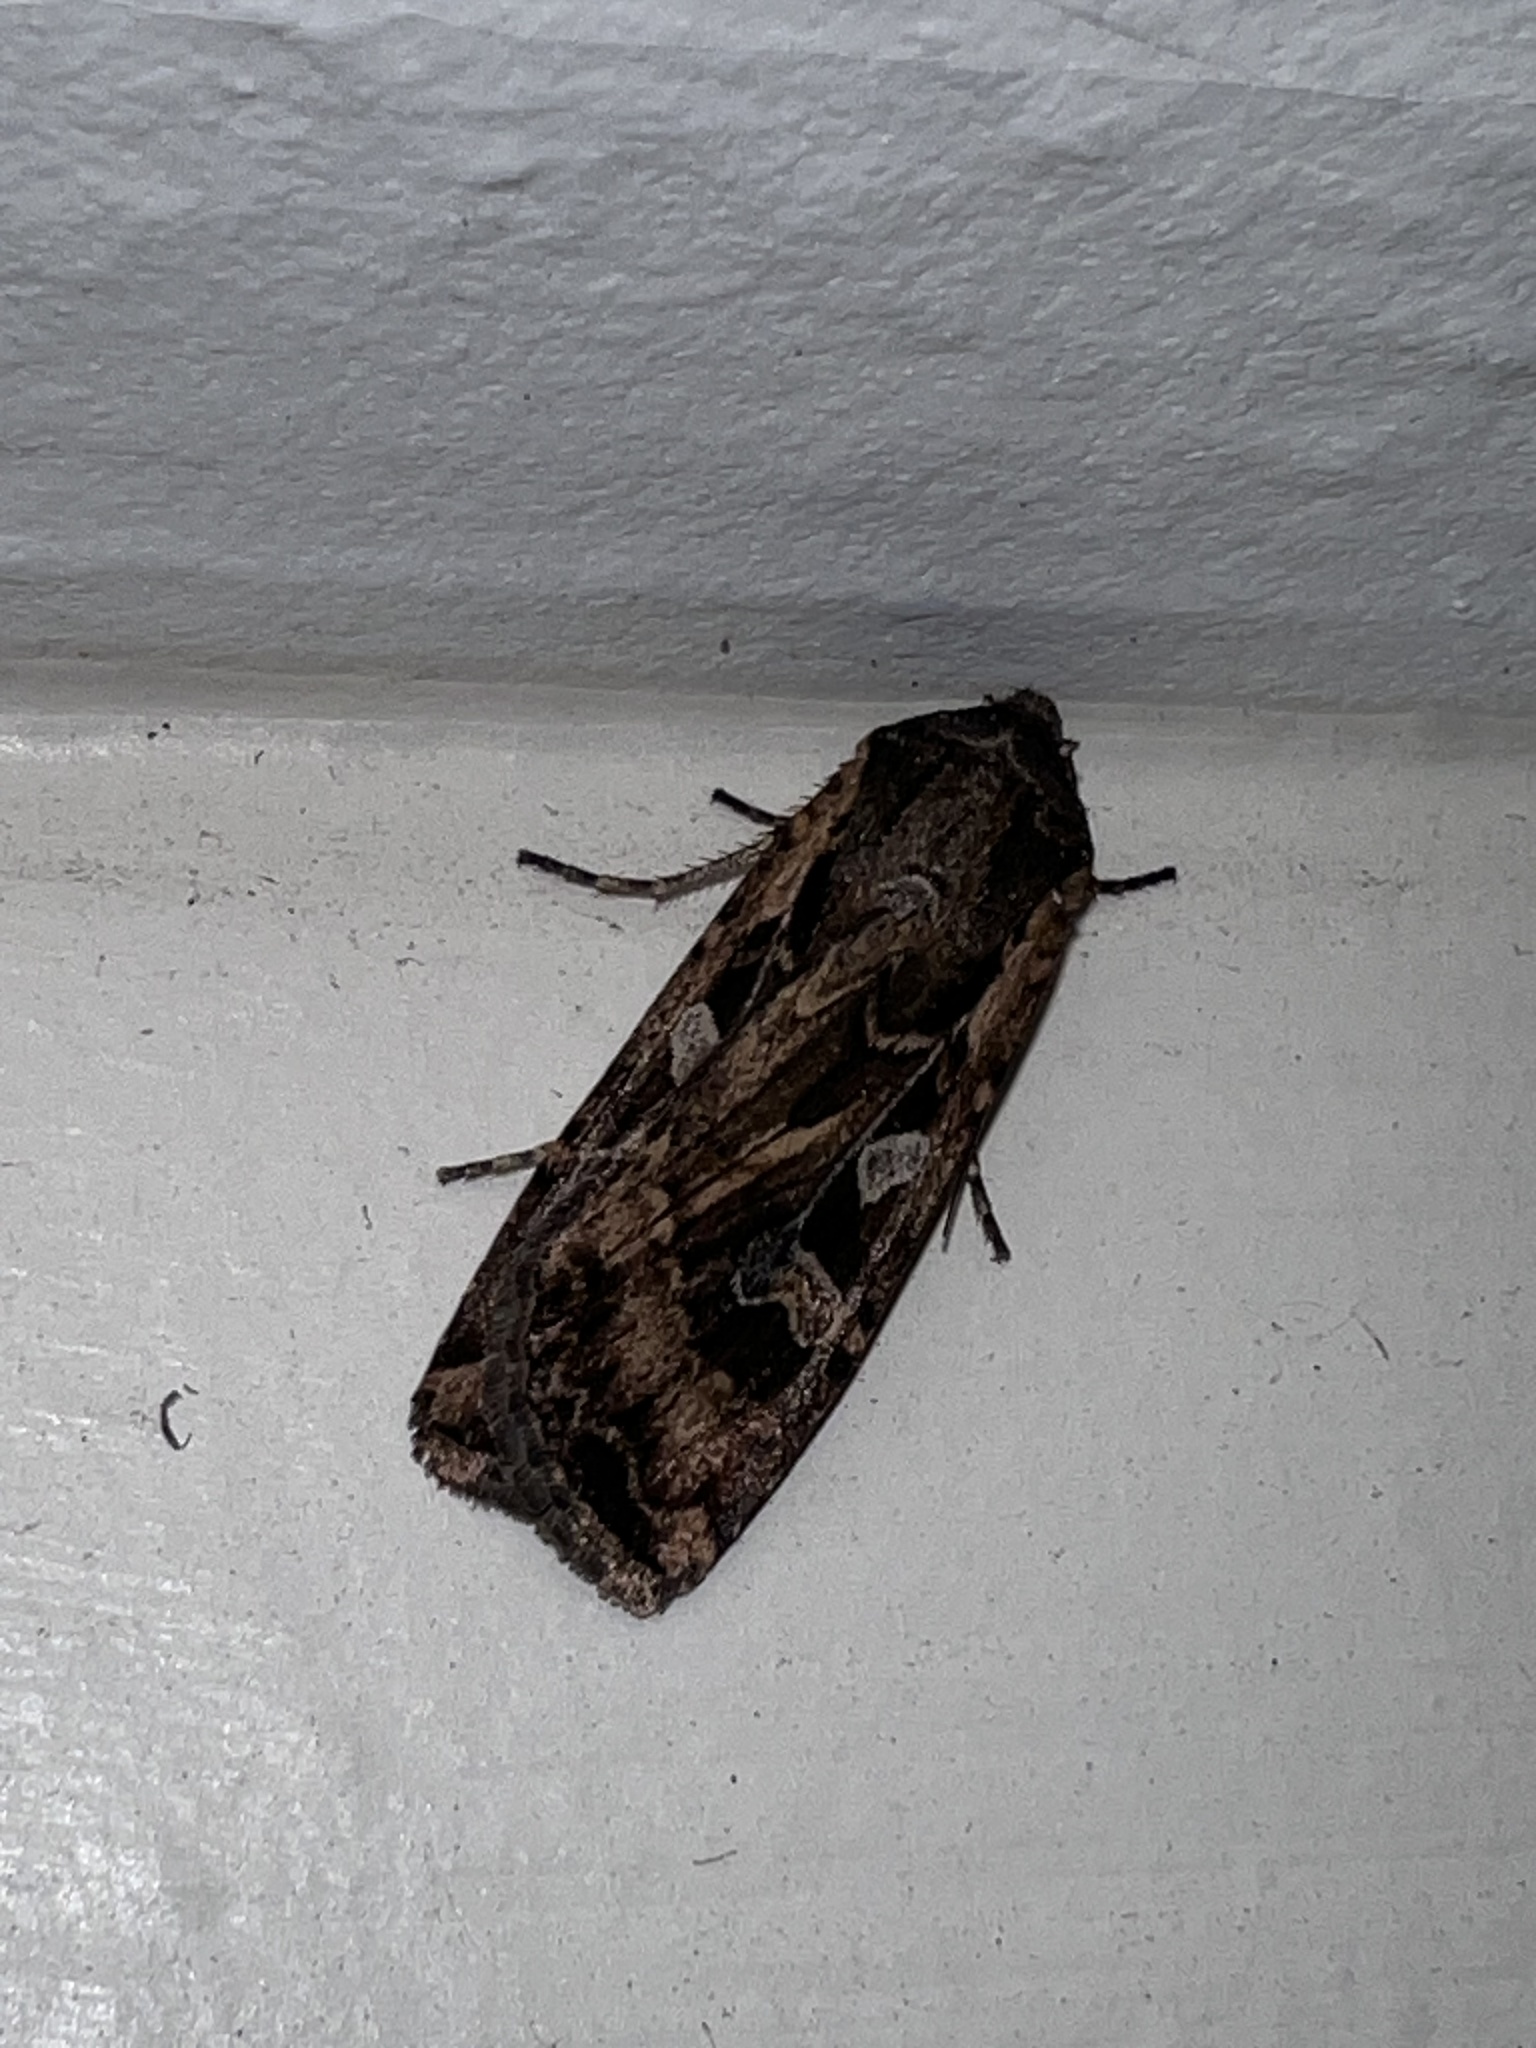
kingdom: Animalia
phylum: Arthropoda
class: Insecta
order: Lepidoptera
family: Noctuidae
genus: Euxoa
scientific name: Euxoa auxiliaris
